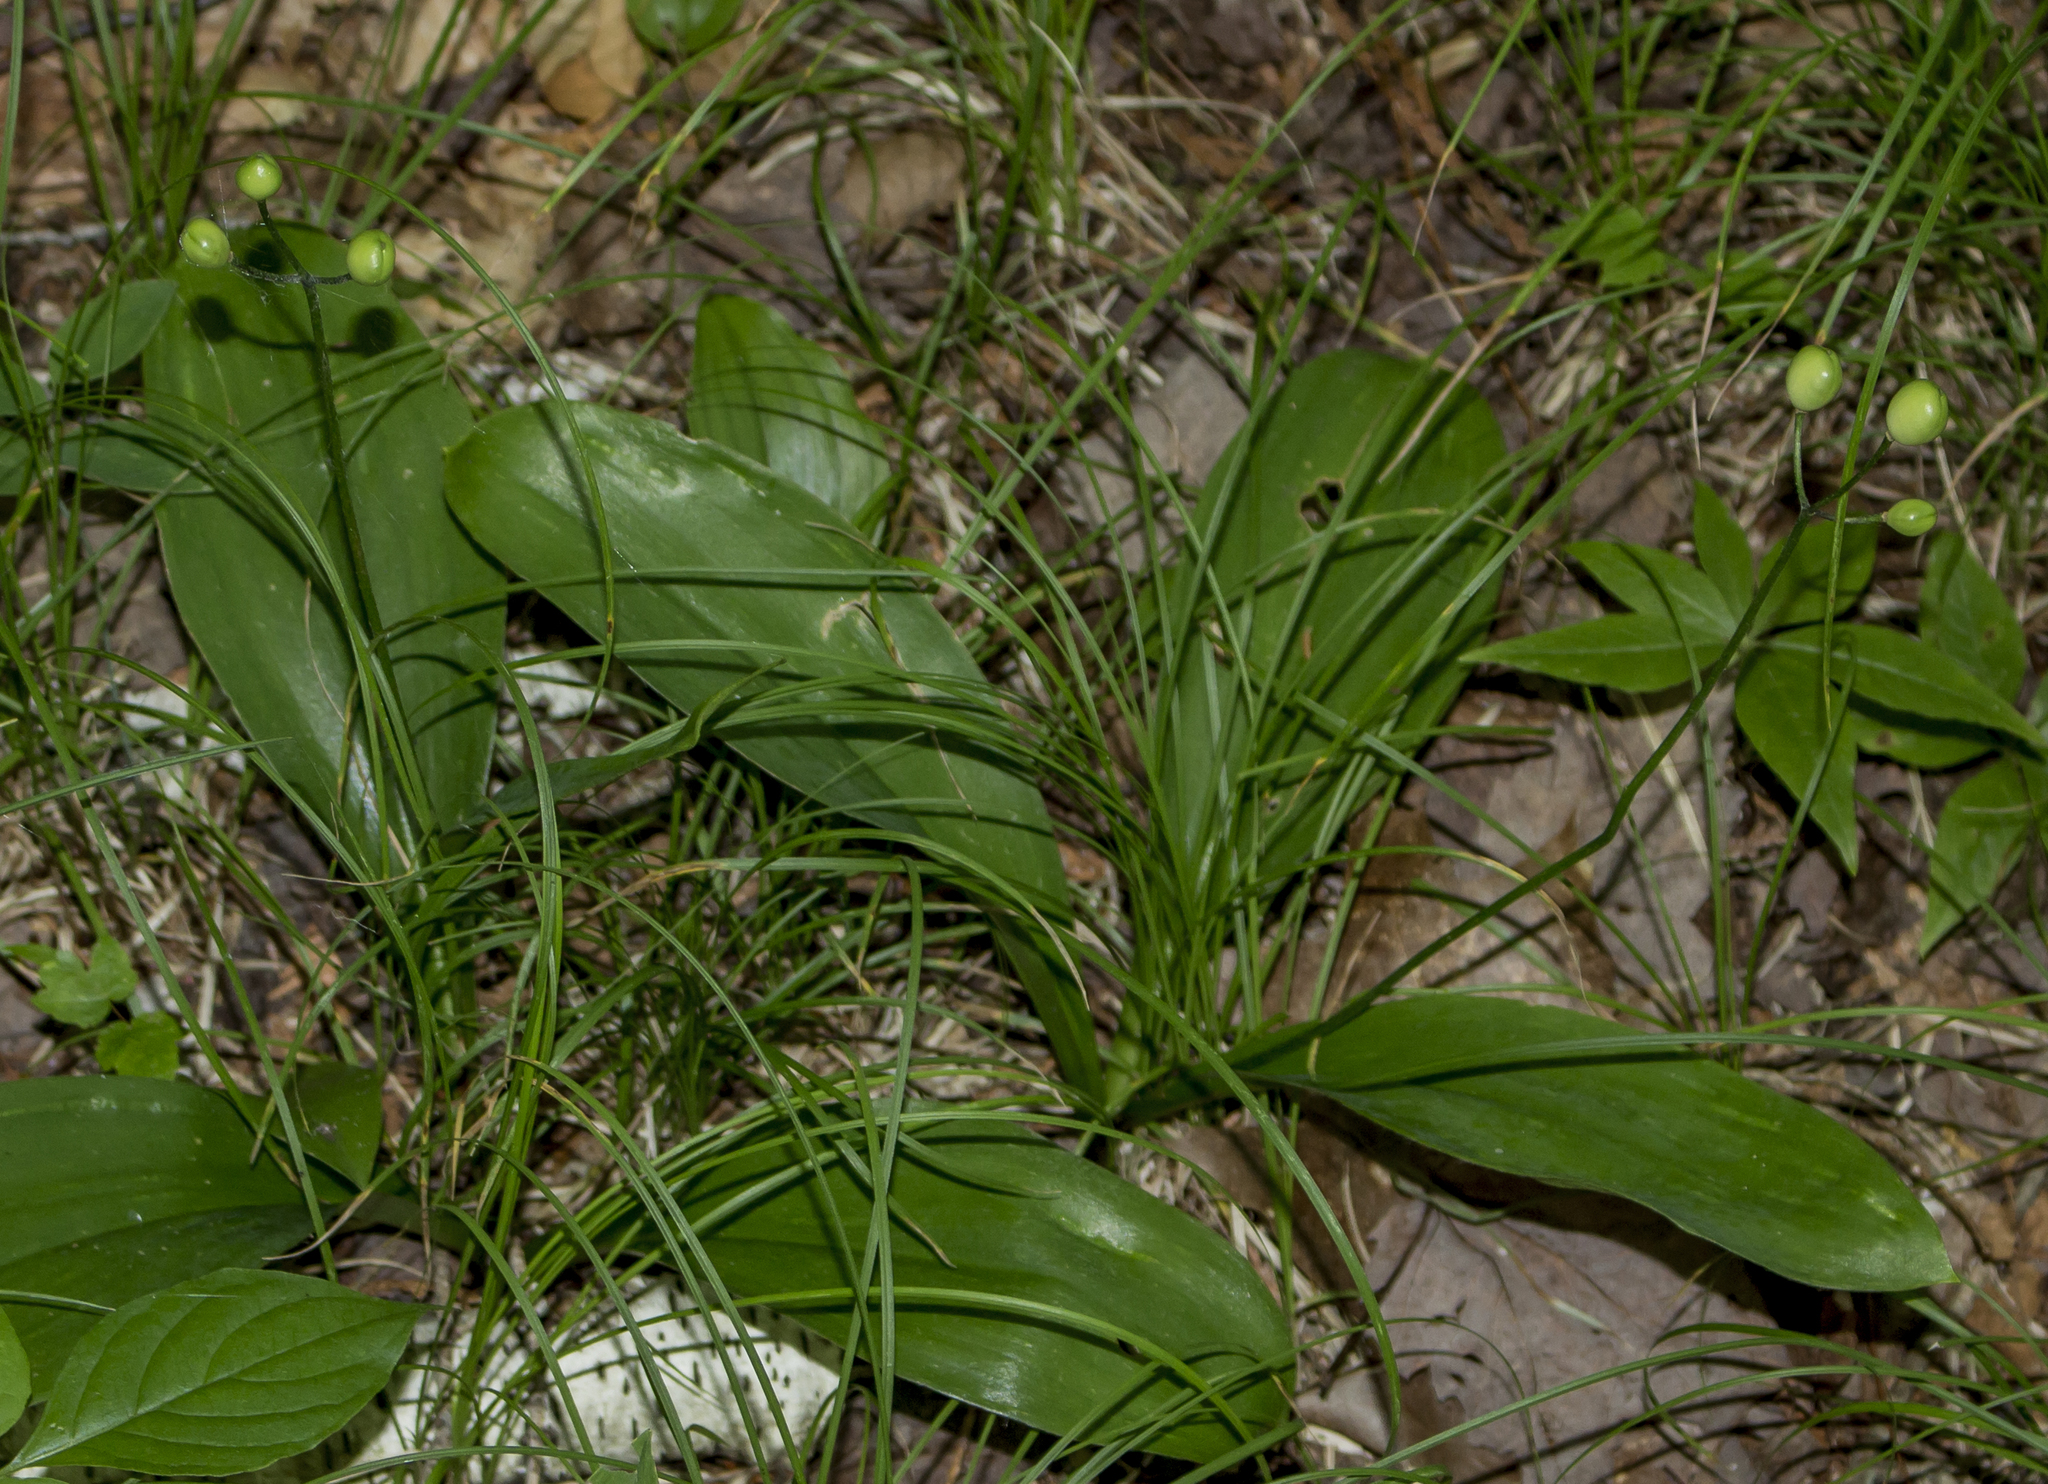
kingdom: Plantae
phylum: Tracheophyta
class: Liliopsida
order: Liliales
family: Liliaceae
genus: Clintonia
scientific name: Clintonia borealis
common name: Yellow clintonia
